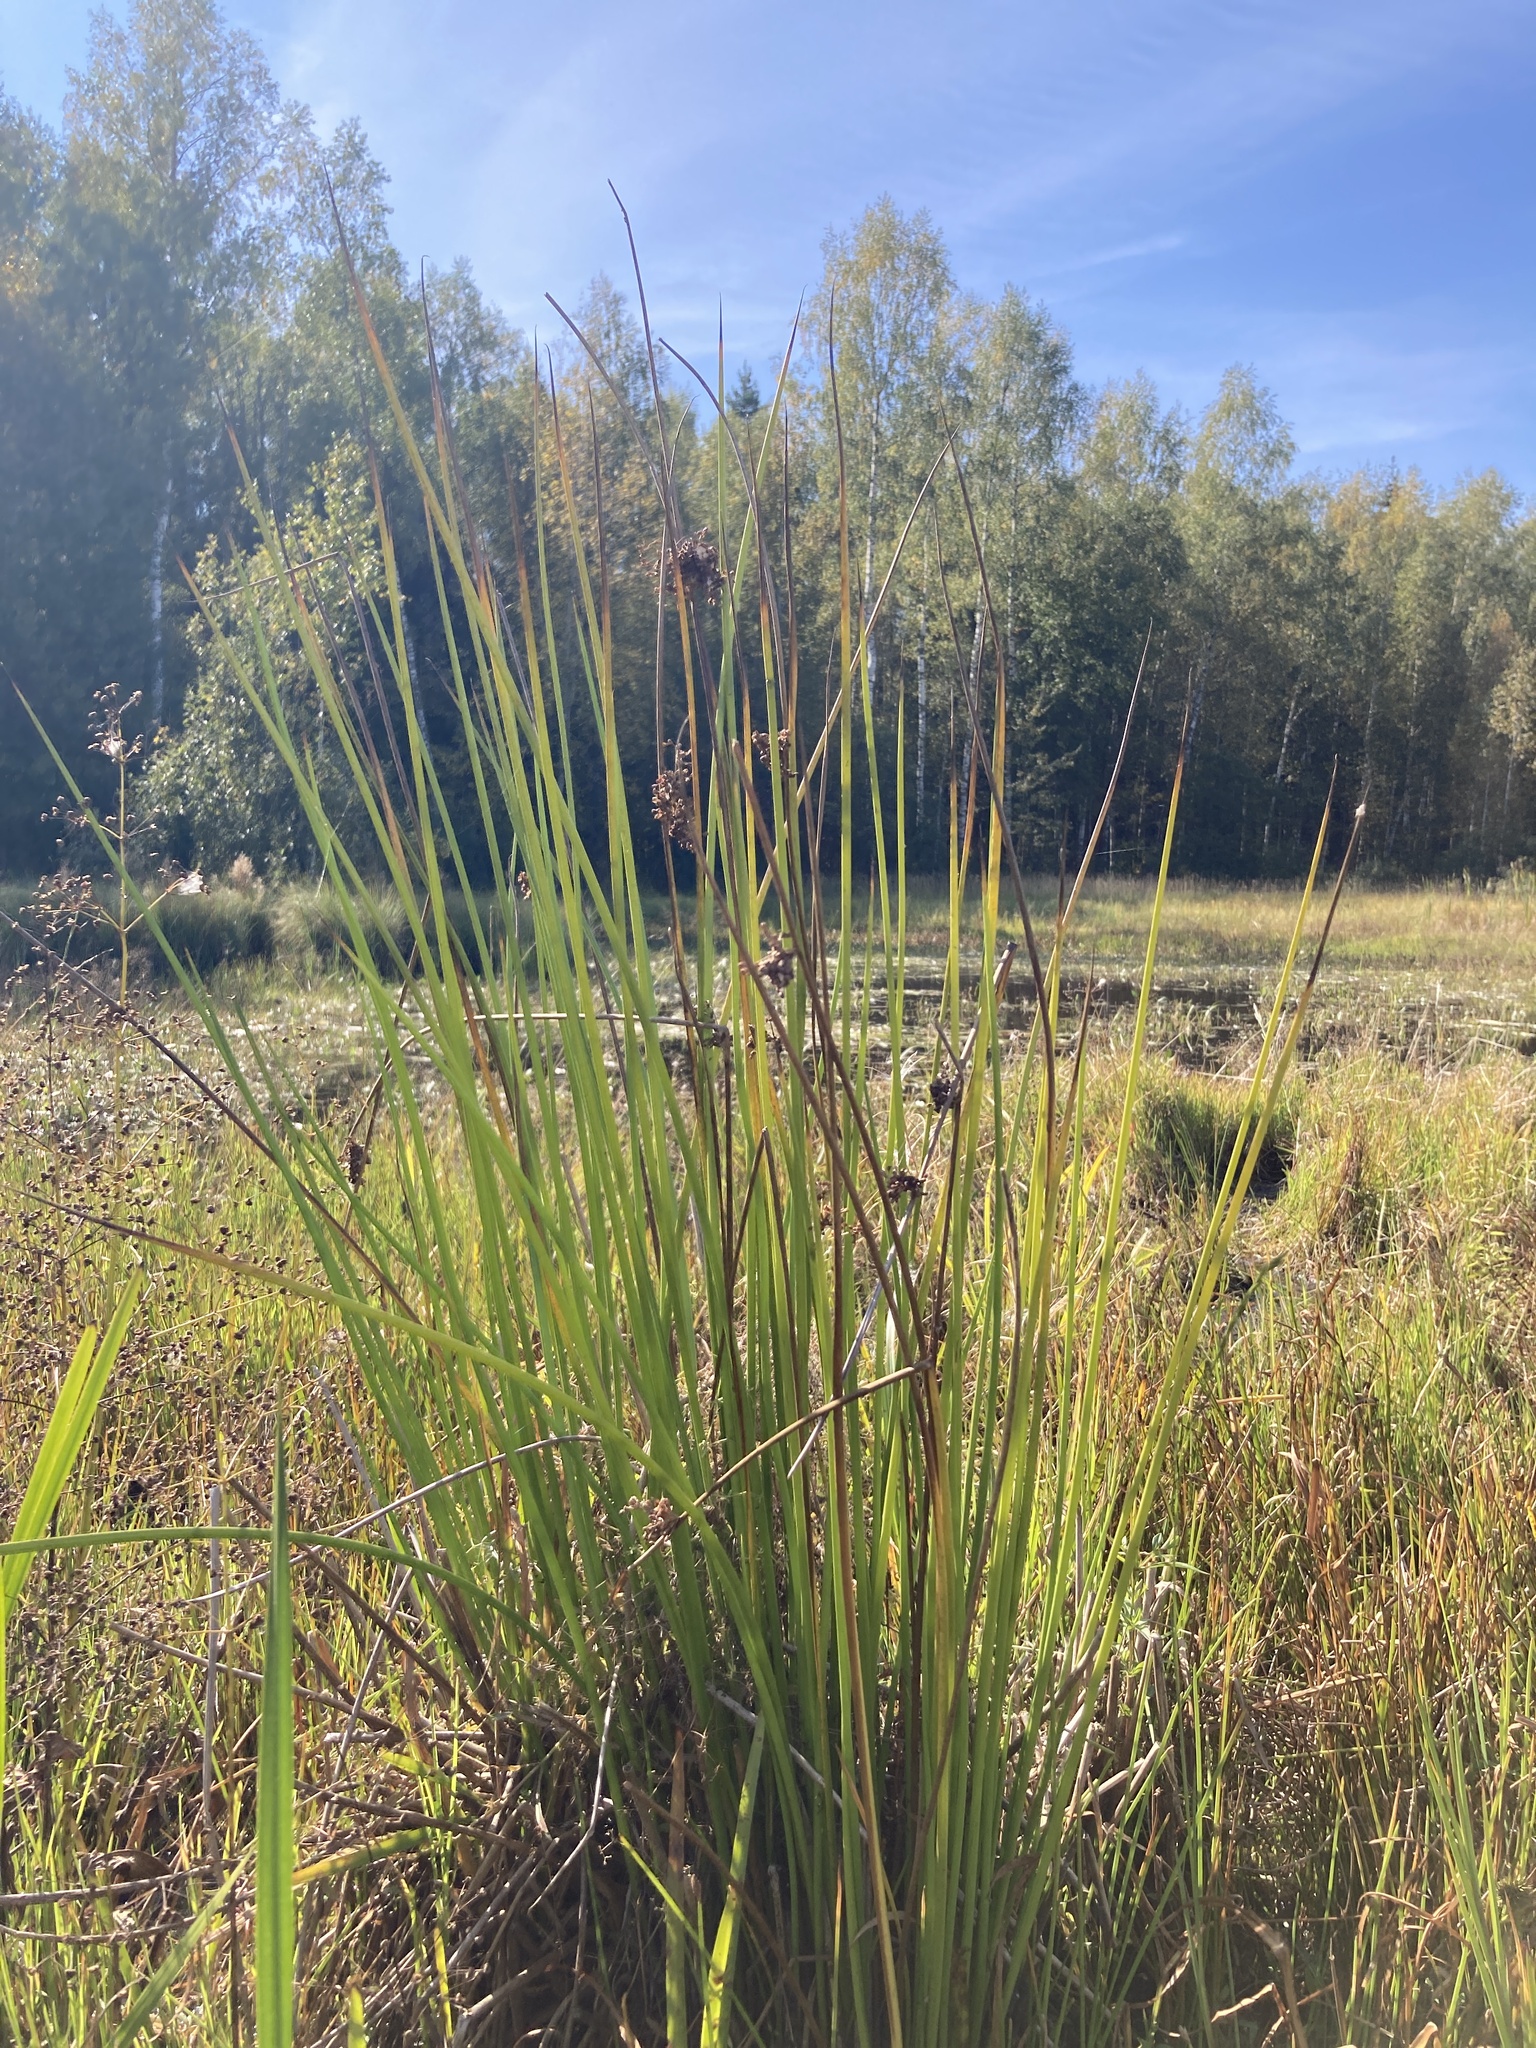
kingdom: Plantae
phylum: Tracheophyta
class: Liliopsida
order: Poales
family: Juncaceae
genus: Juncus
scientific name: Juncus effusus
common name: Soft rush
